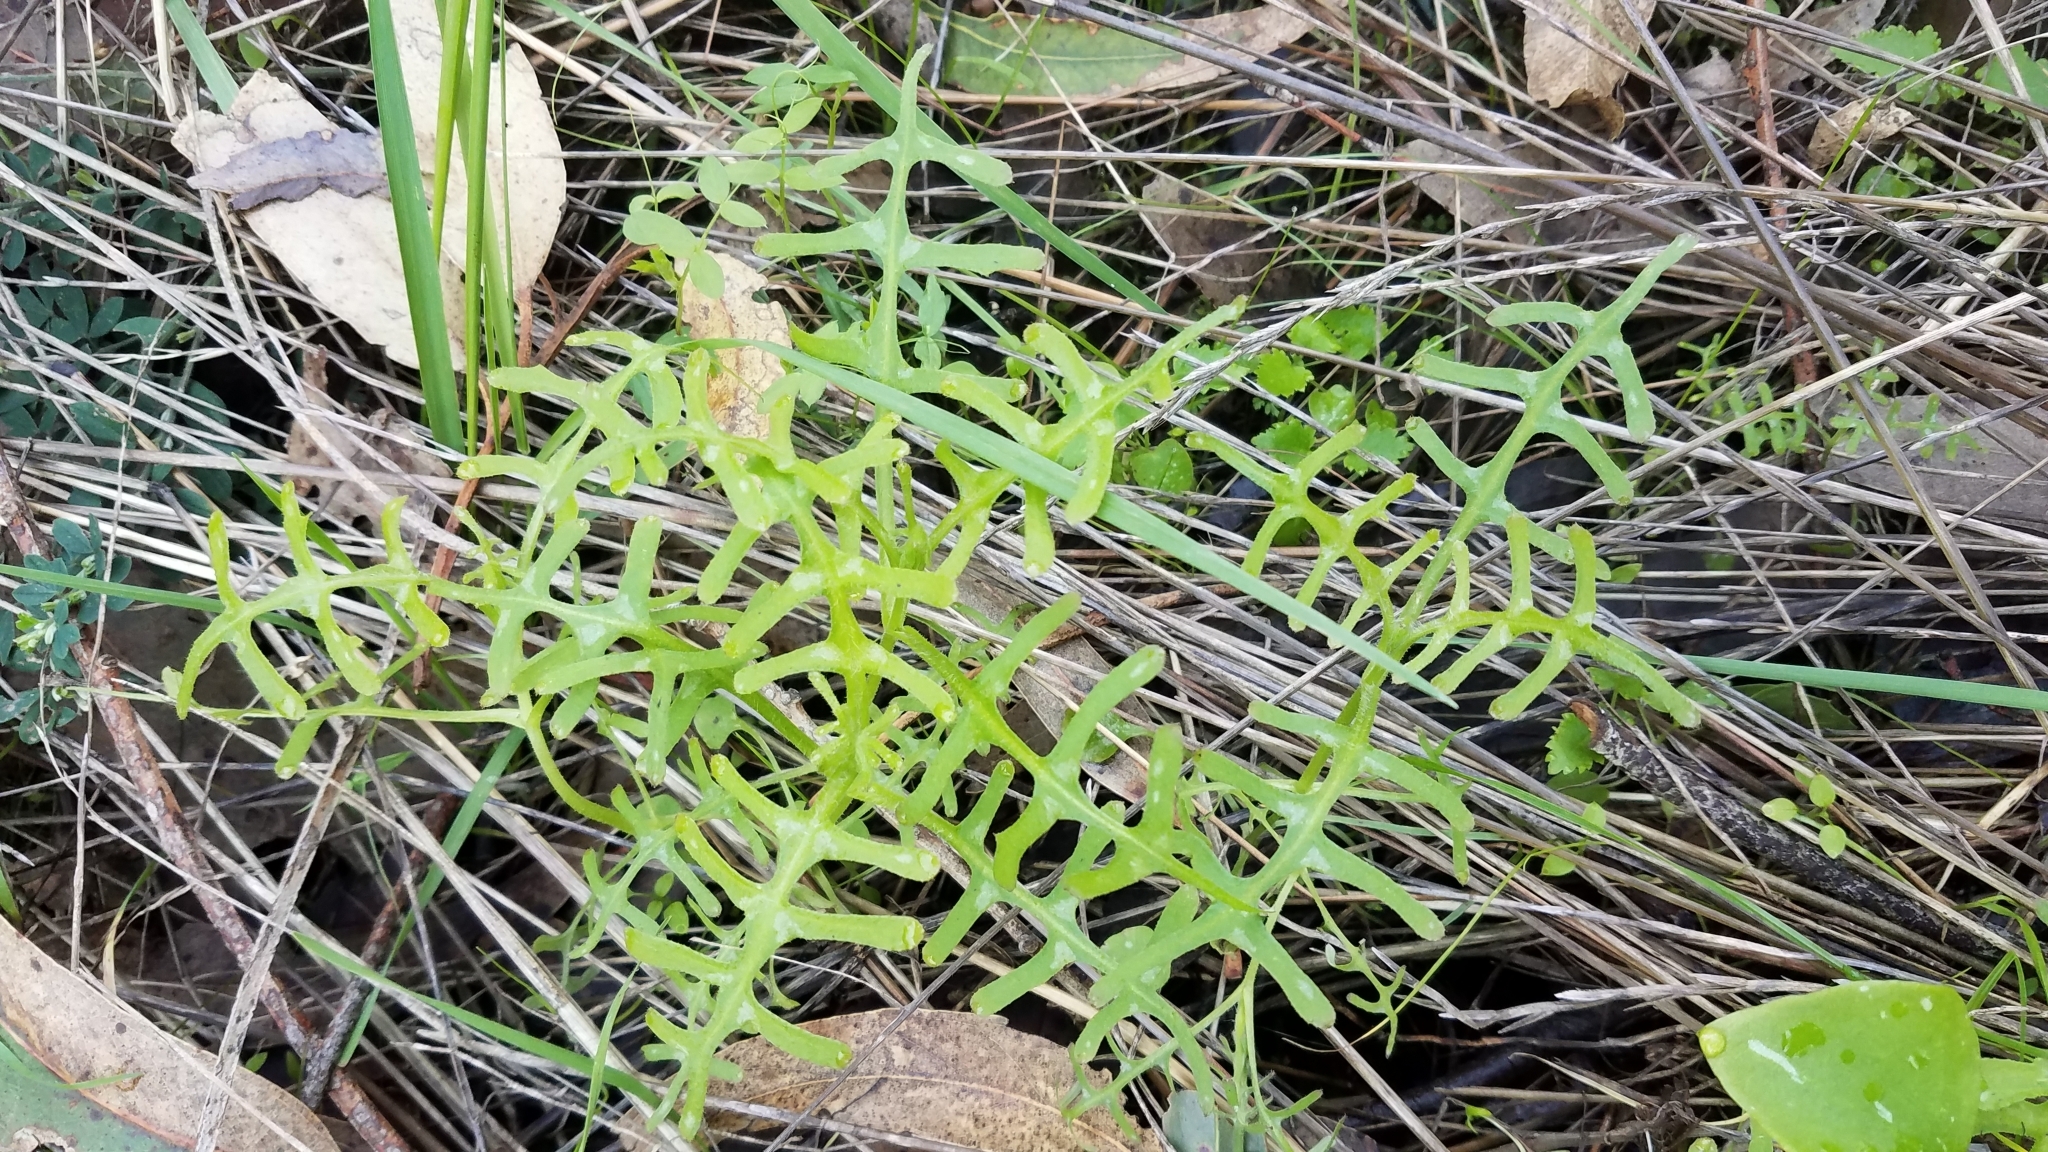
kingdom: Plantae
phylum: Tracheophyta
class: Magnoliopsida
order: Boraginales
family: Hydrophyllaceae
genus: Pholistoma
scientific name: Pholistoma auritum
